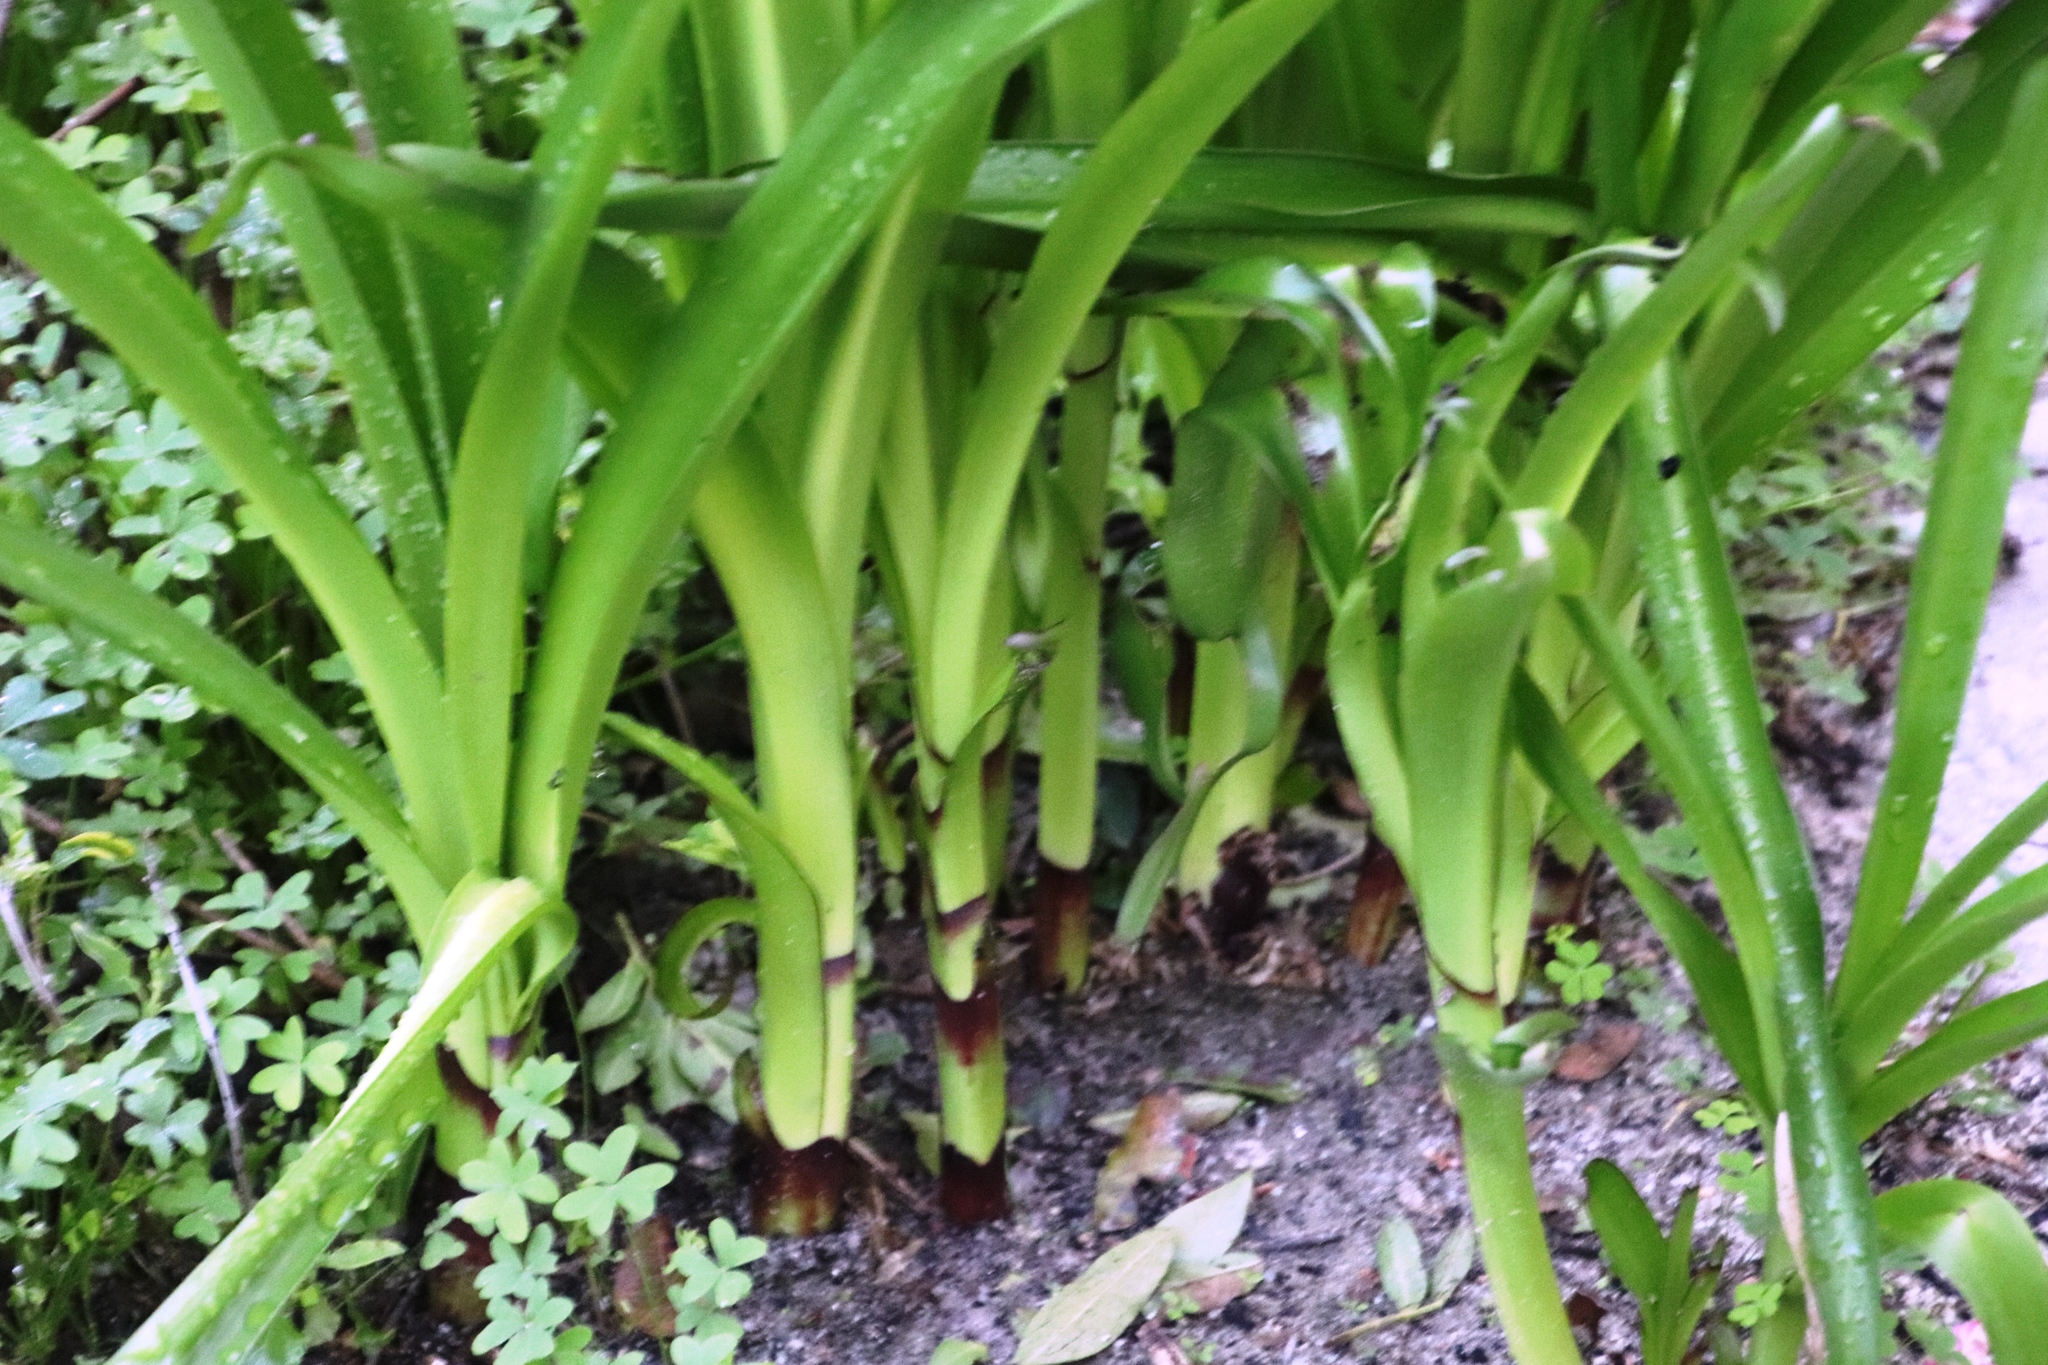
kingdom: Plantae
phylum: Tracheophyta
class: Liliopsida
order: Asparagales
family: Amaryllidaceae
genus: Amaryllis
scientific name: Amaryllis belladonna
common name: Jersey lily
